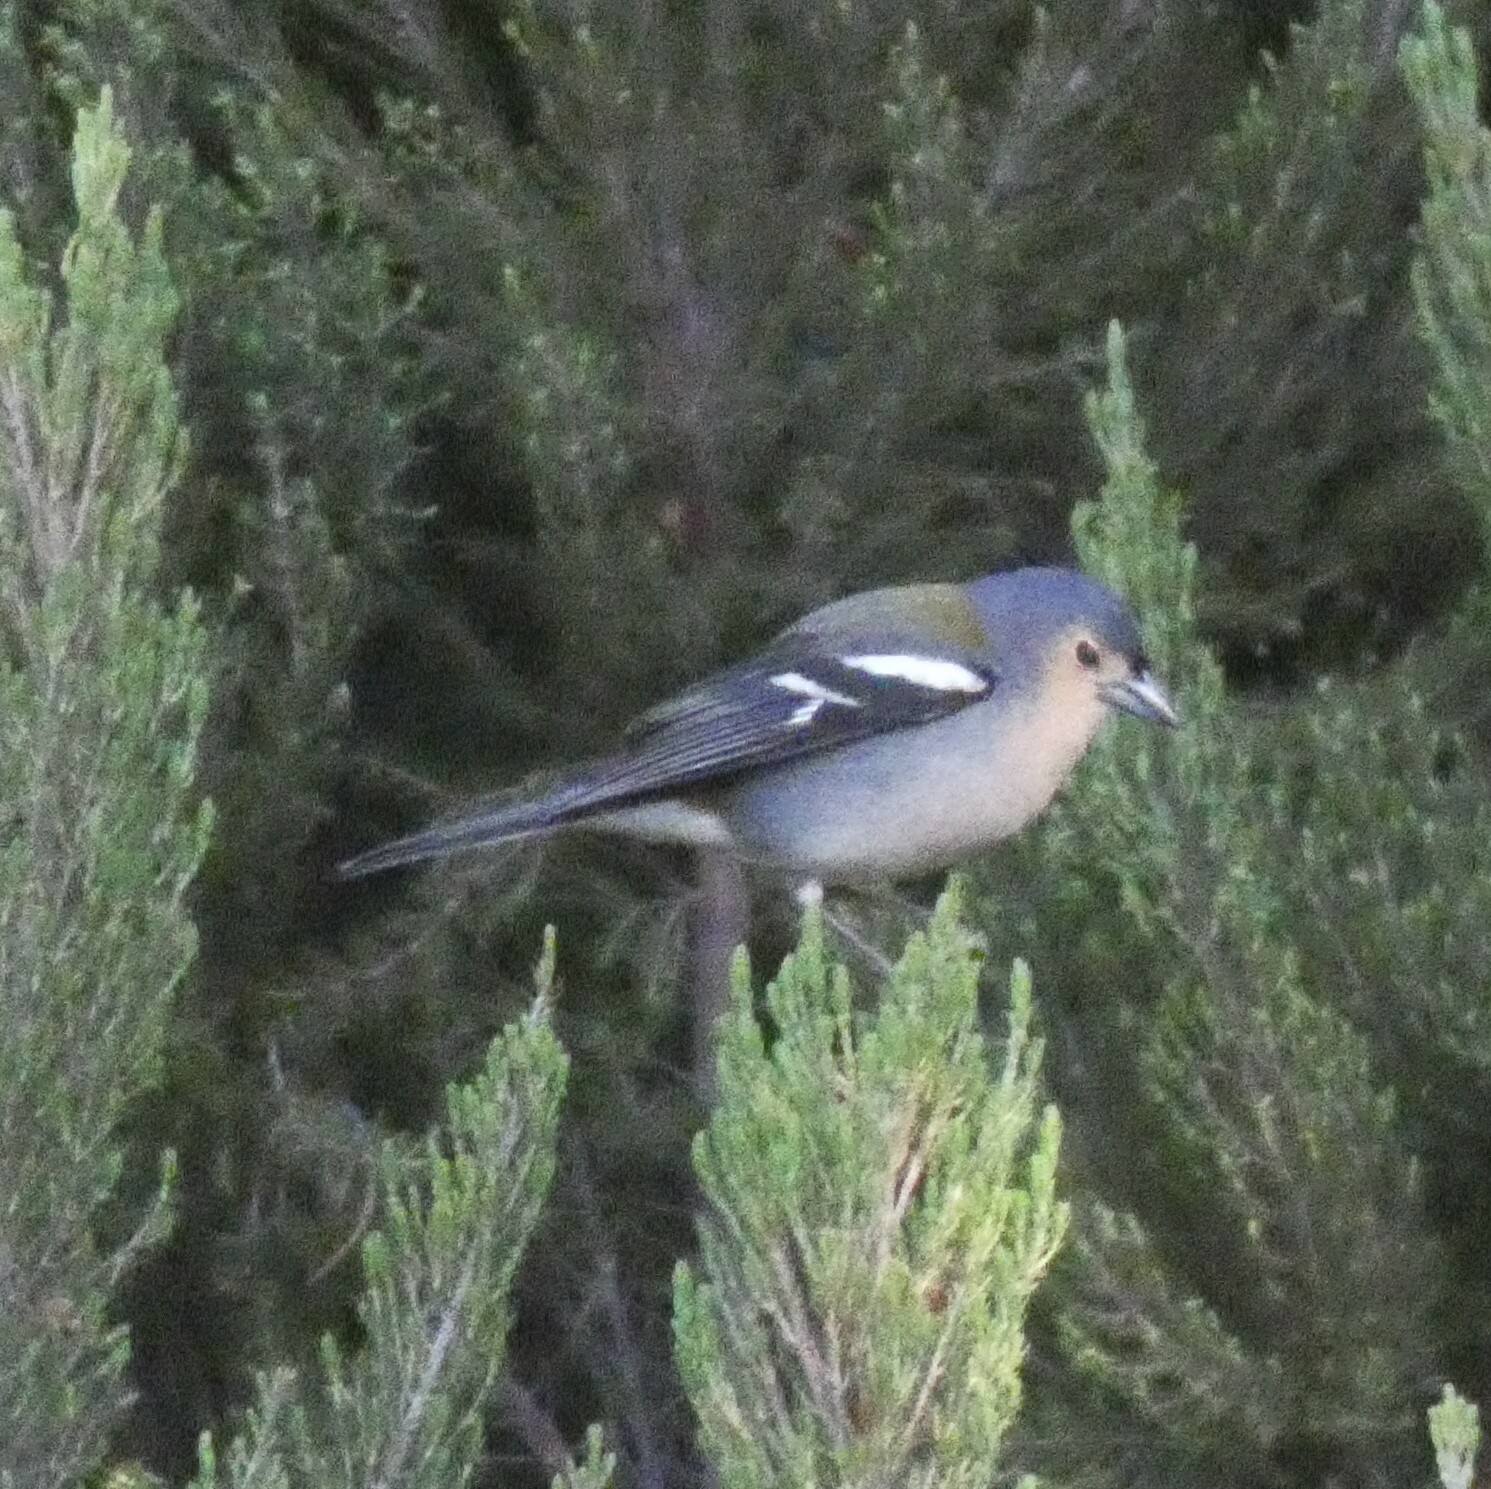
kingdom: Animalia
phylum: Chordata
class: Aves
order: Passeriformes
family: Fringillidae
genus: Fringilla
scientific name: Fringilla maderensis
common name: Madeira chaffinch
